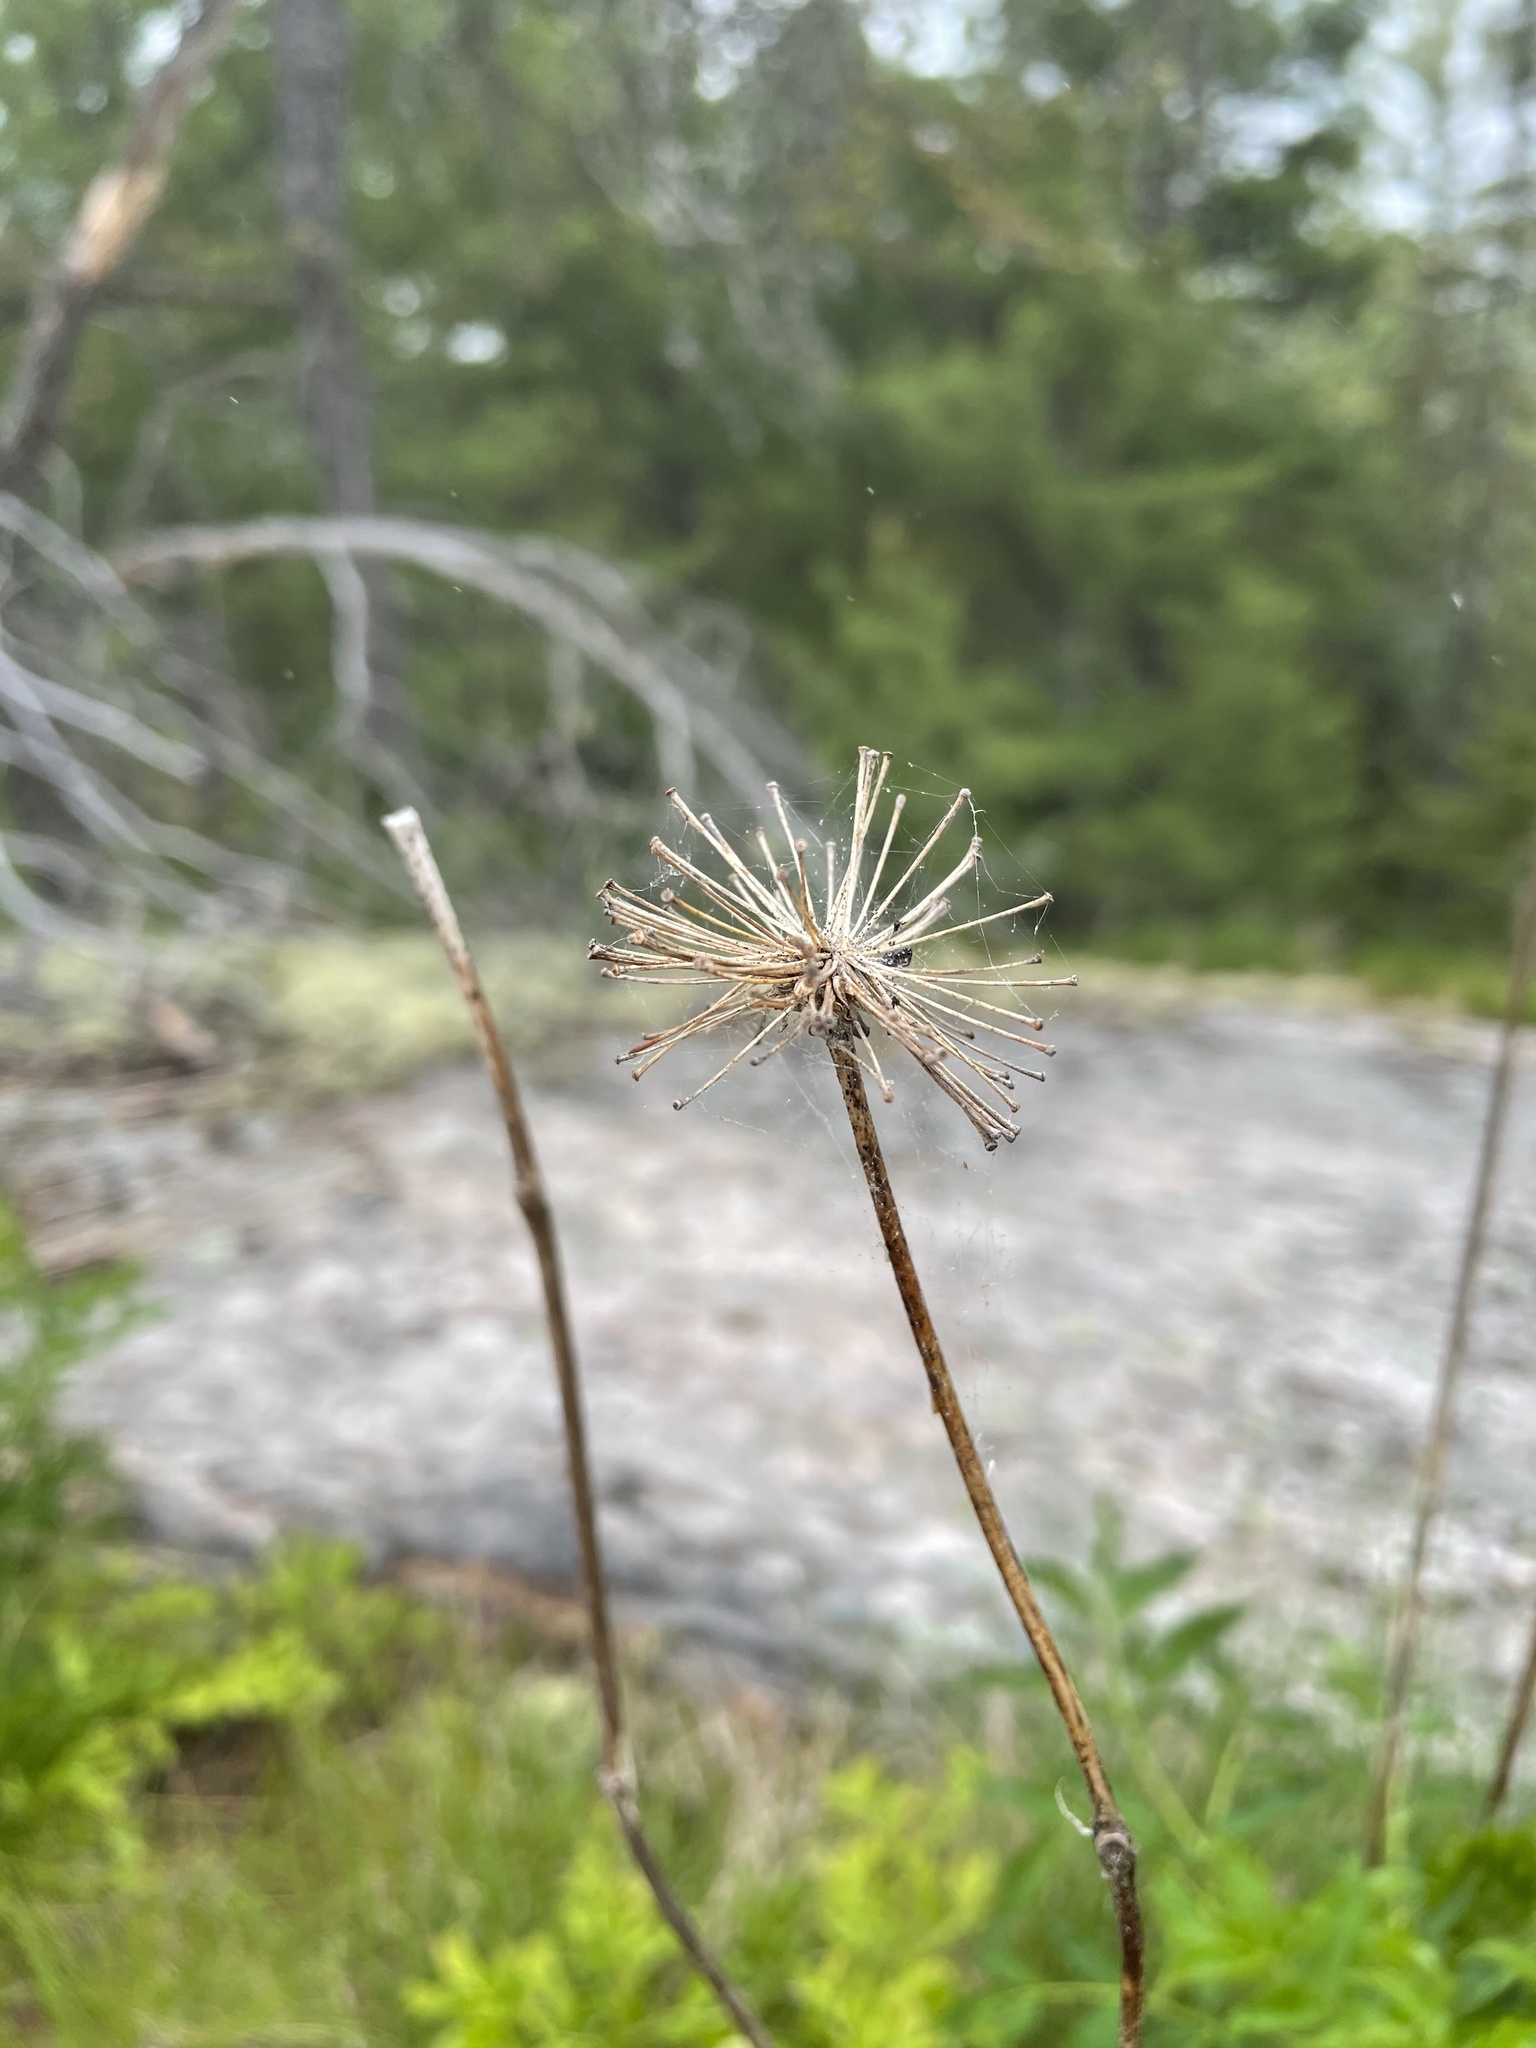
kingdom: Plantae
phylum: Tracheophyta
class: Magnoliopsida
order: Apiales
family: Araliaceae
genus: Aralia
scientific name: Aralia hispida
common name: Bristly sarsaparilla
